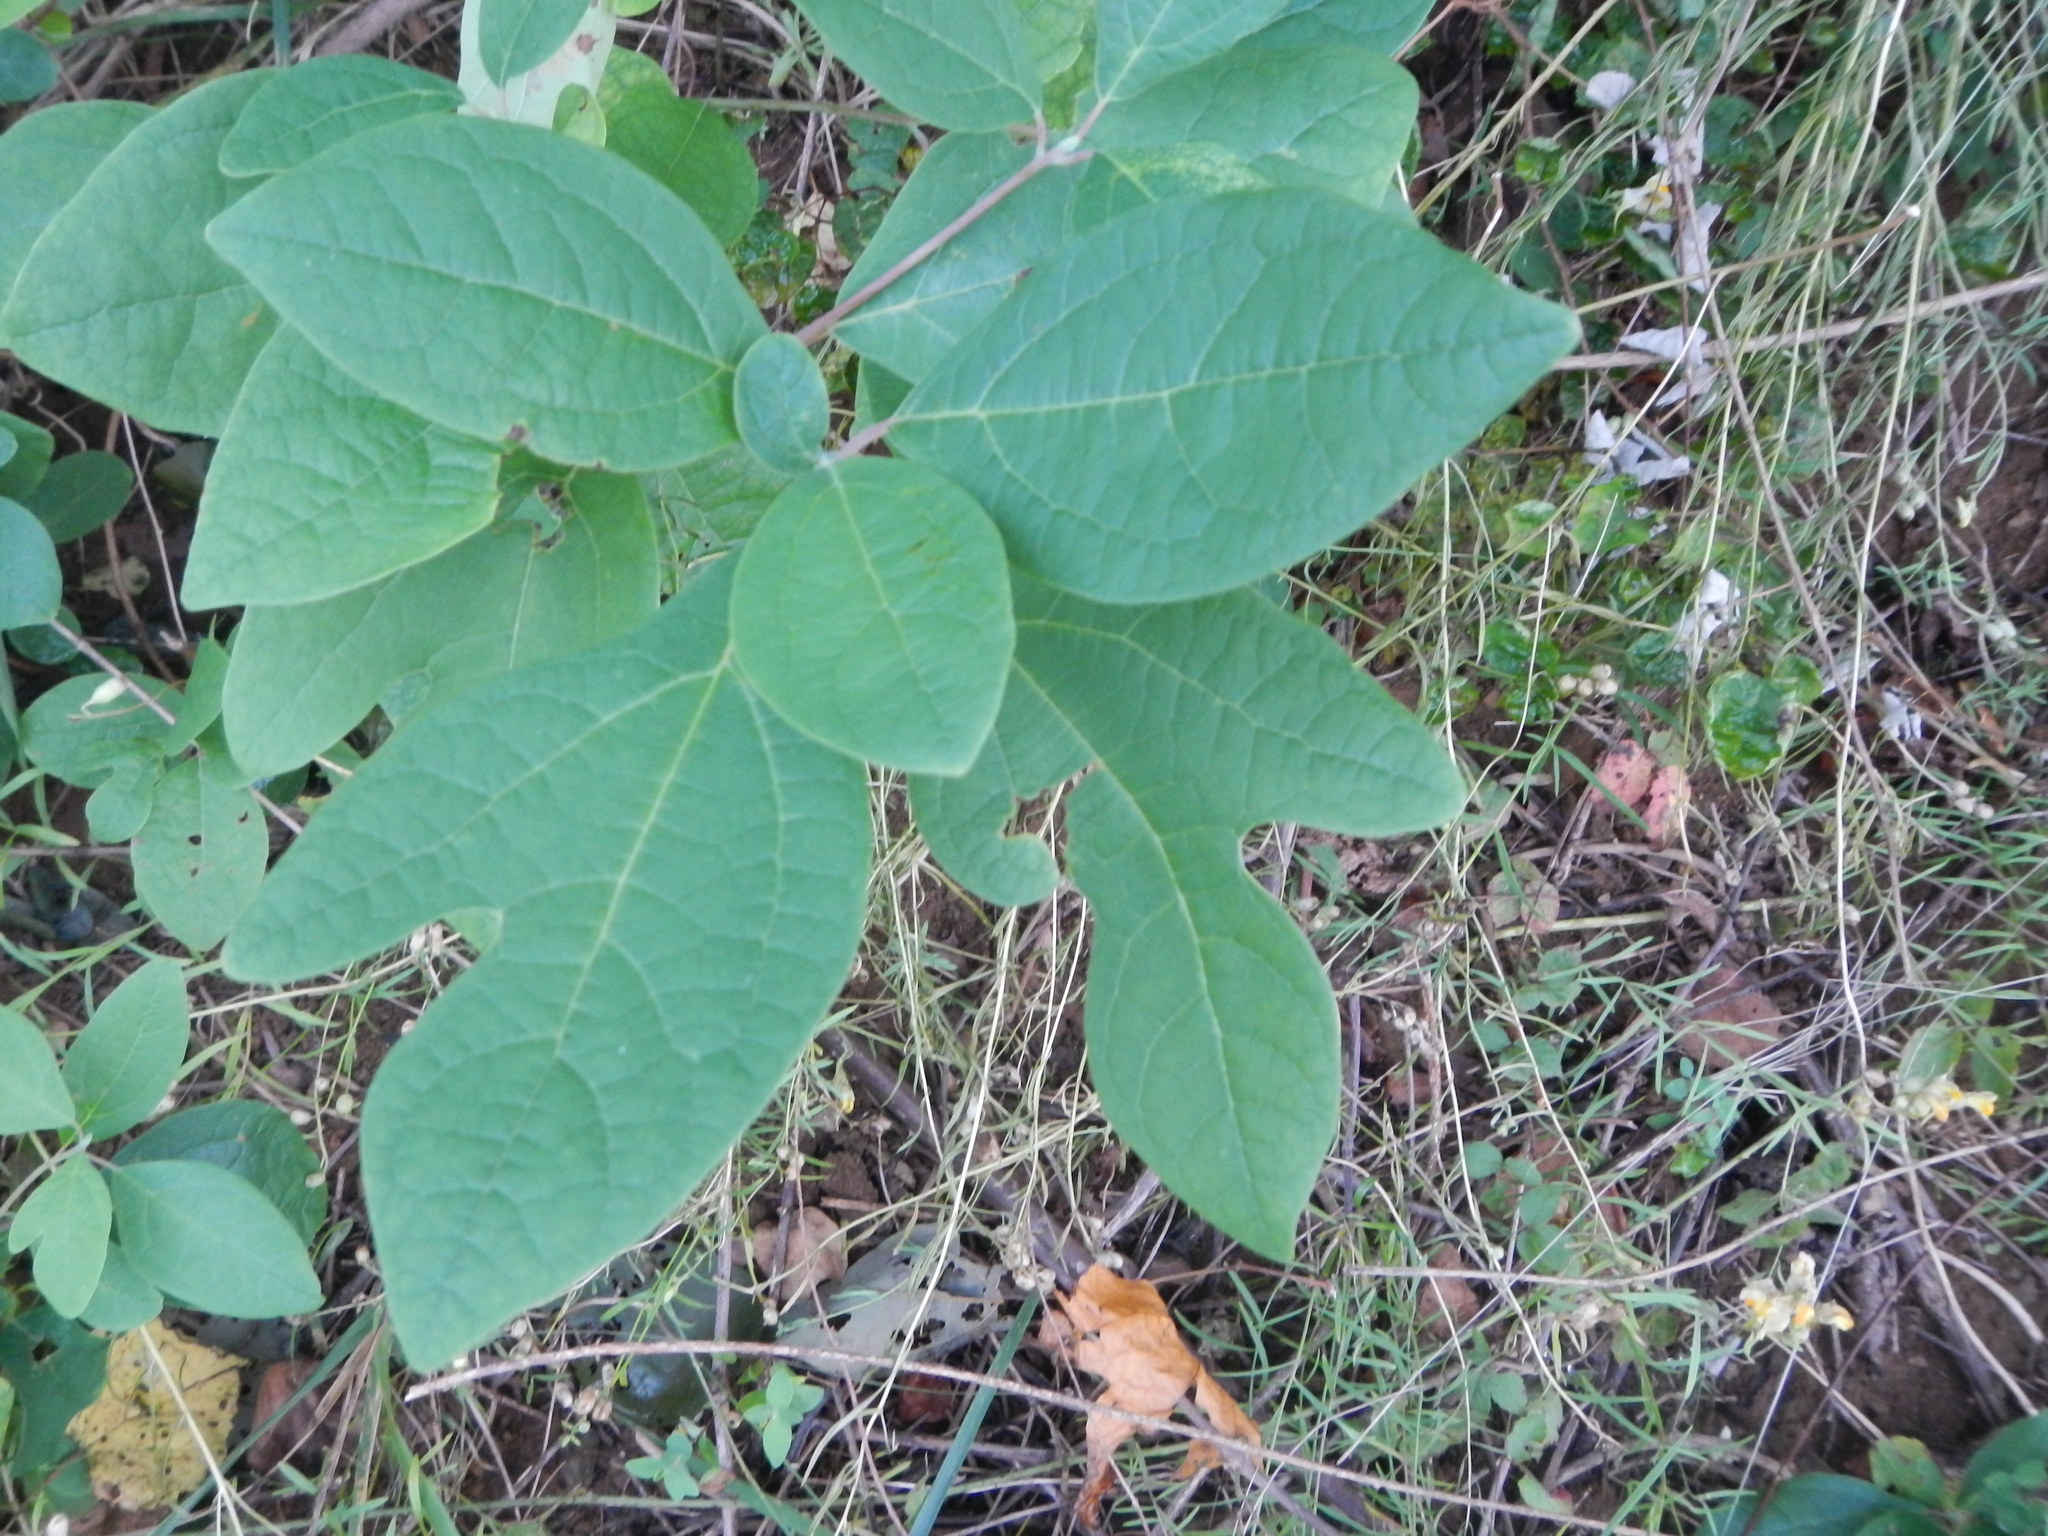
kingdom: Plantae
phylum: Tracheophyta
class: Magnoliopsida
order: Laurales
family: Lauraceae
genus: Sassafras
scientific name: Sassafras albidum
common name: Sassafras
